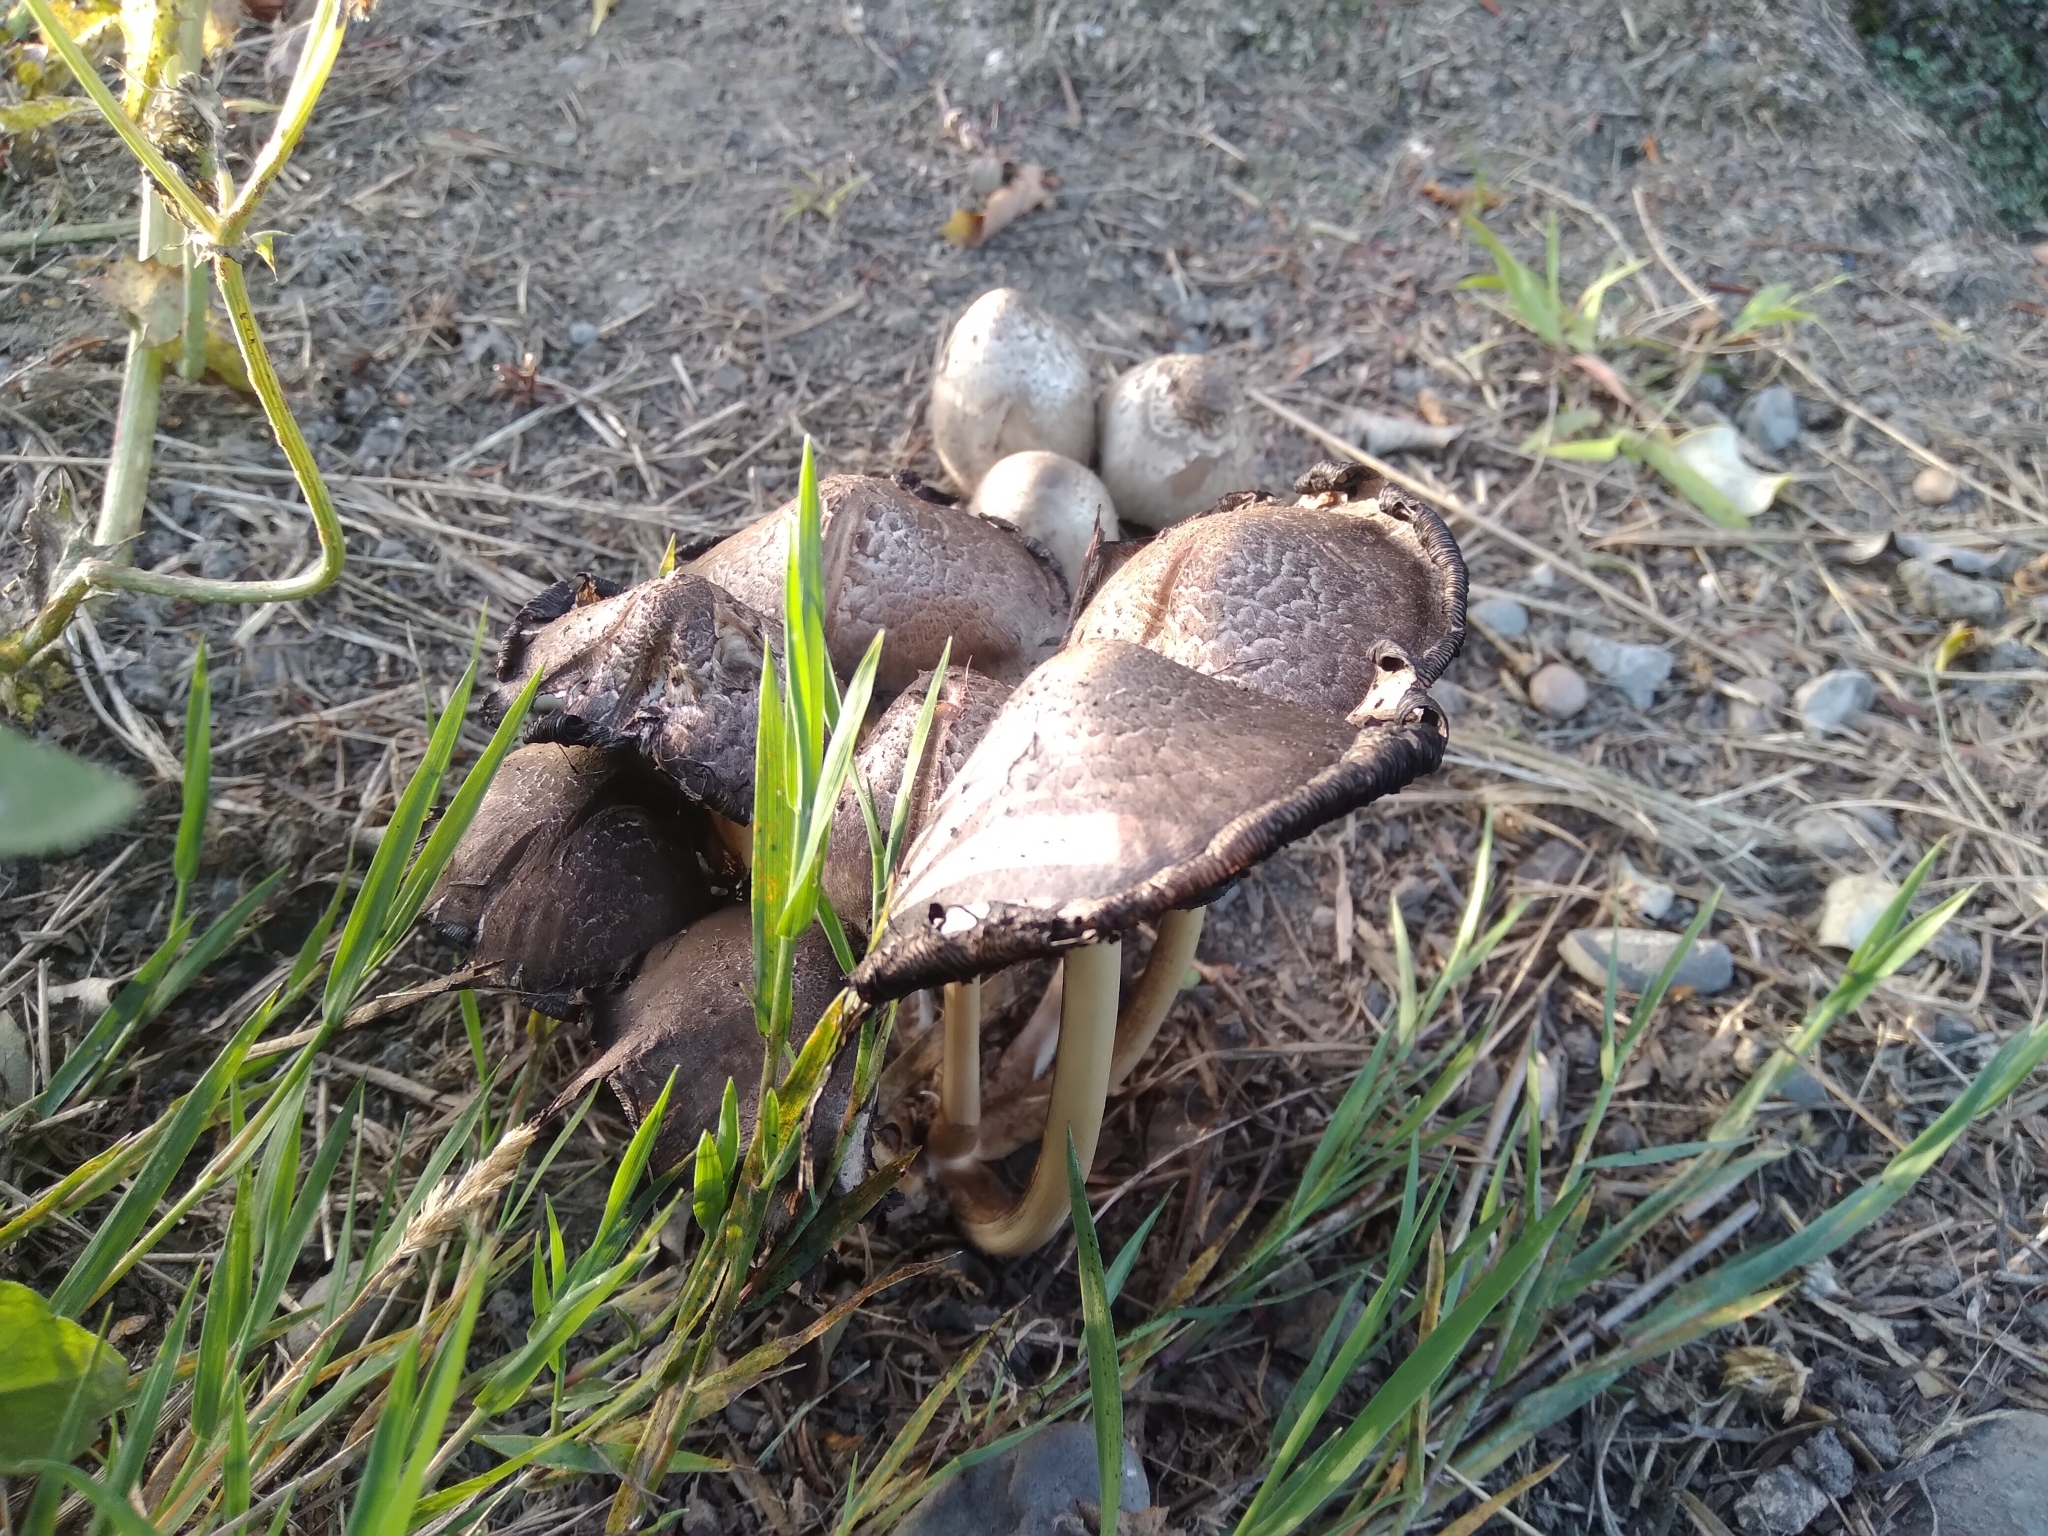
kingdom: Fungi
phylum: Basidiomycota
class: Agaricomycetes
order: Agaricales
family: Psathyrellaceae
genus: Coprinopsis
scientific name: Coprinopsis atramentaria
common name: Common ink-cap
